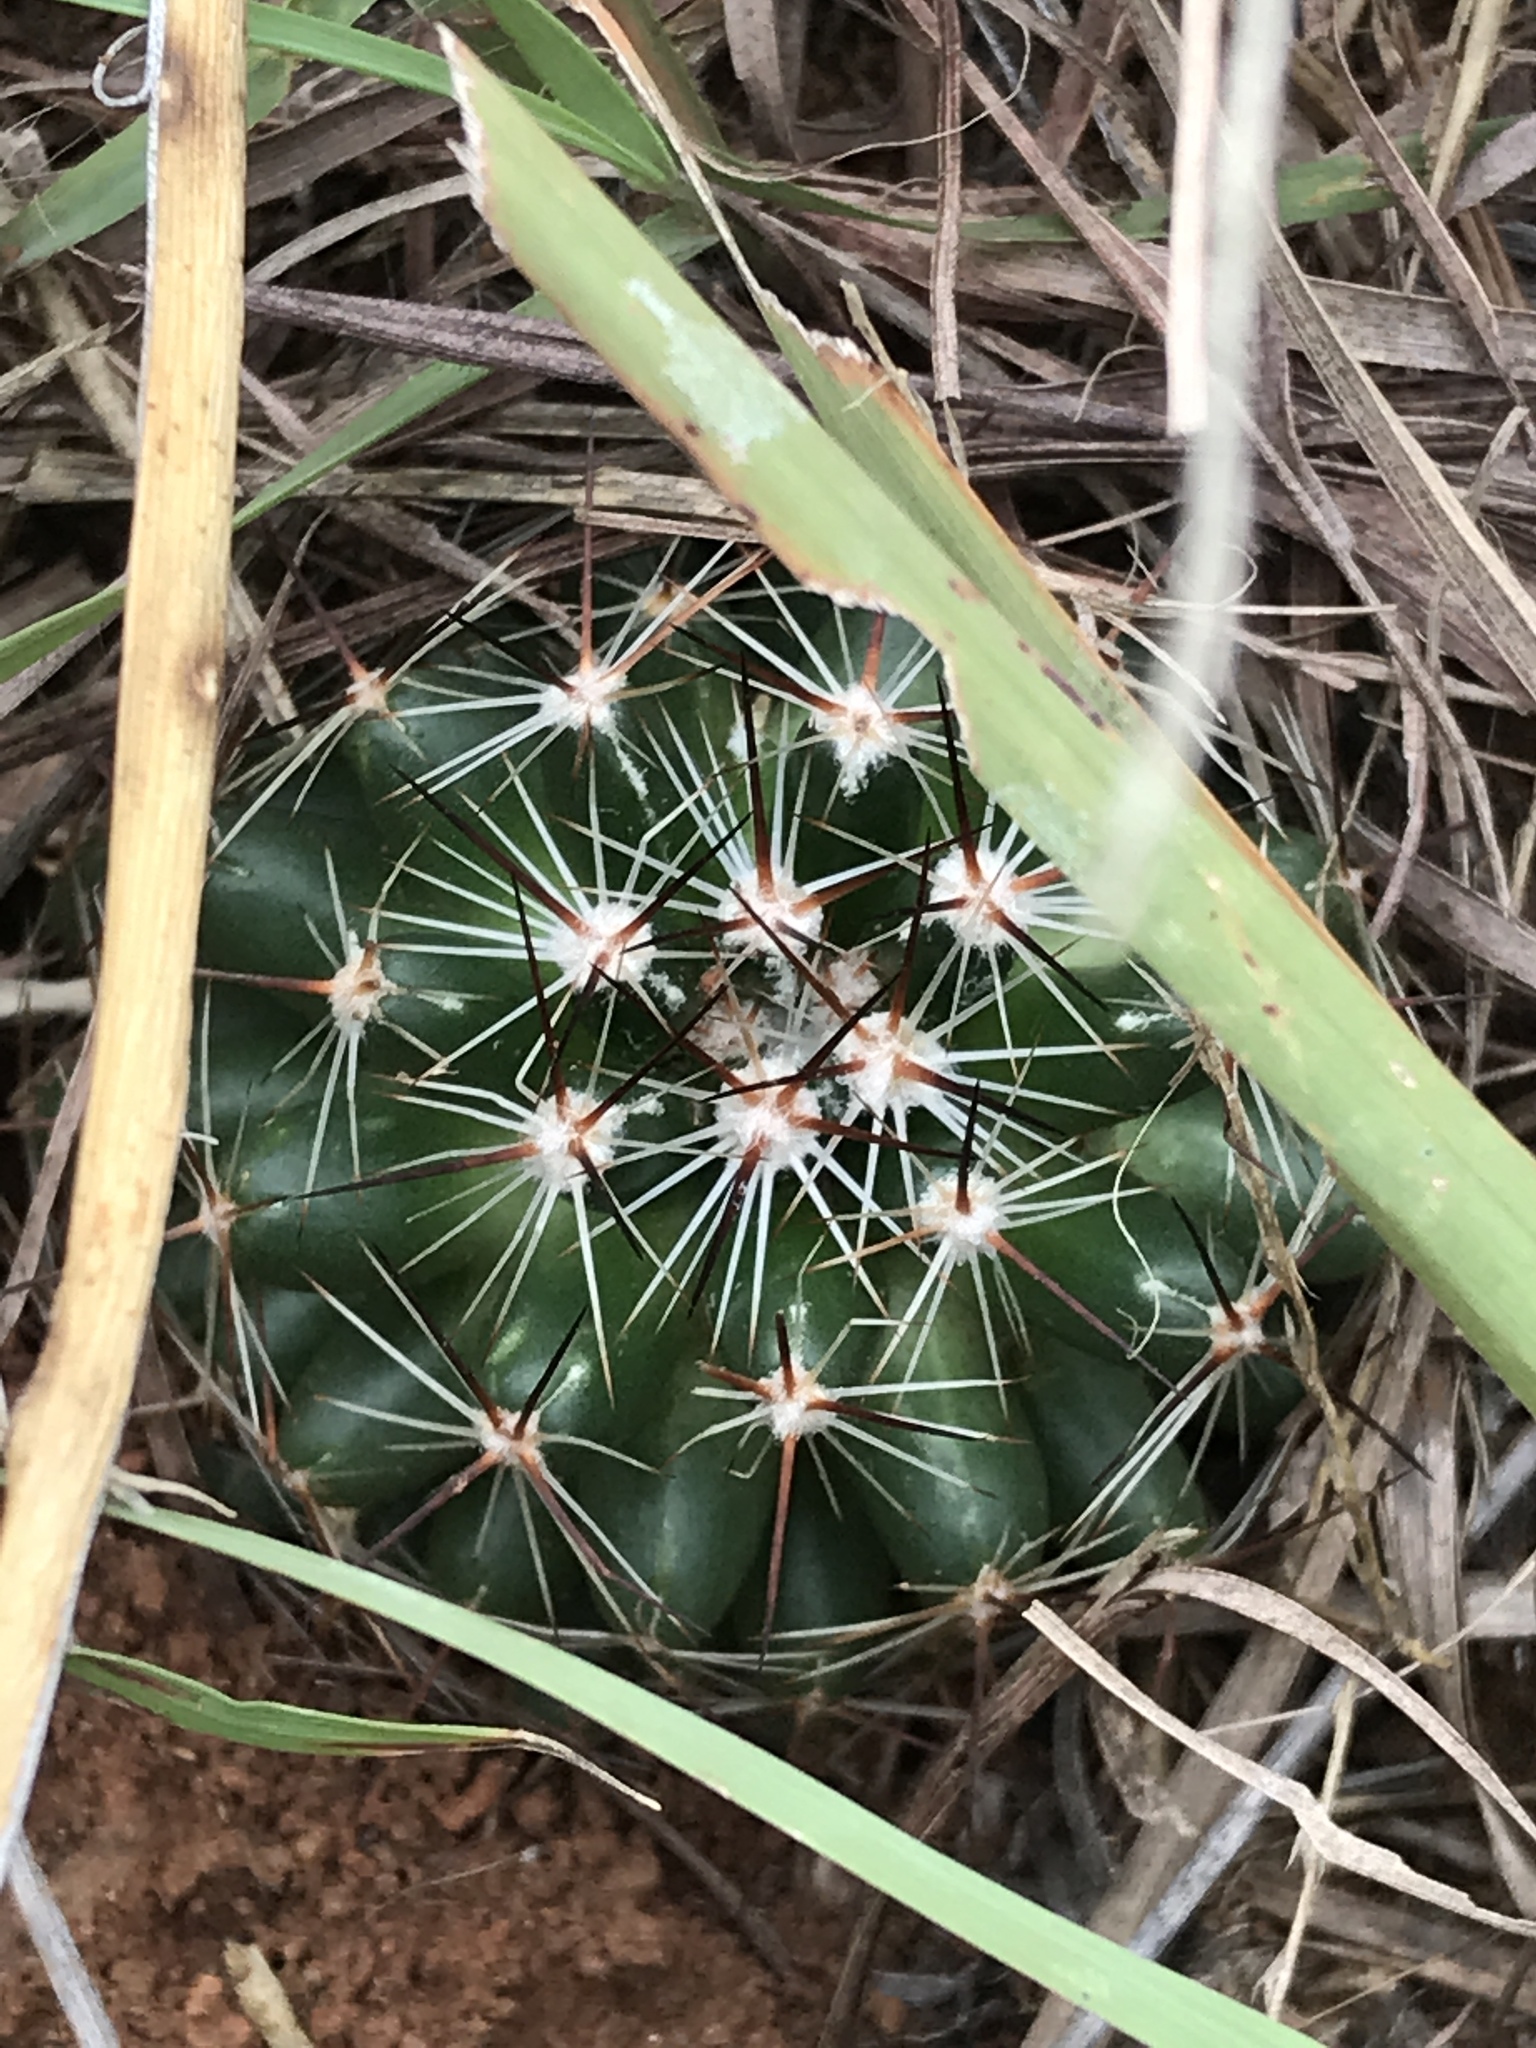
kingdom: Plantae
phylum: Tracheophyta
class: Magnoliopsida
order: Caryophyllales
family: Cactaceae
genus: Pelecyphora
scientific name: Pelecyphora vivipara
